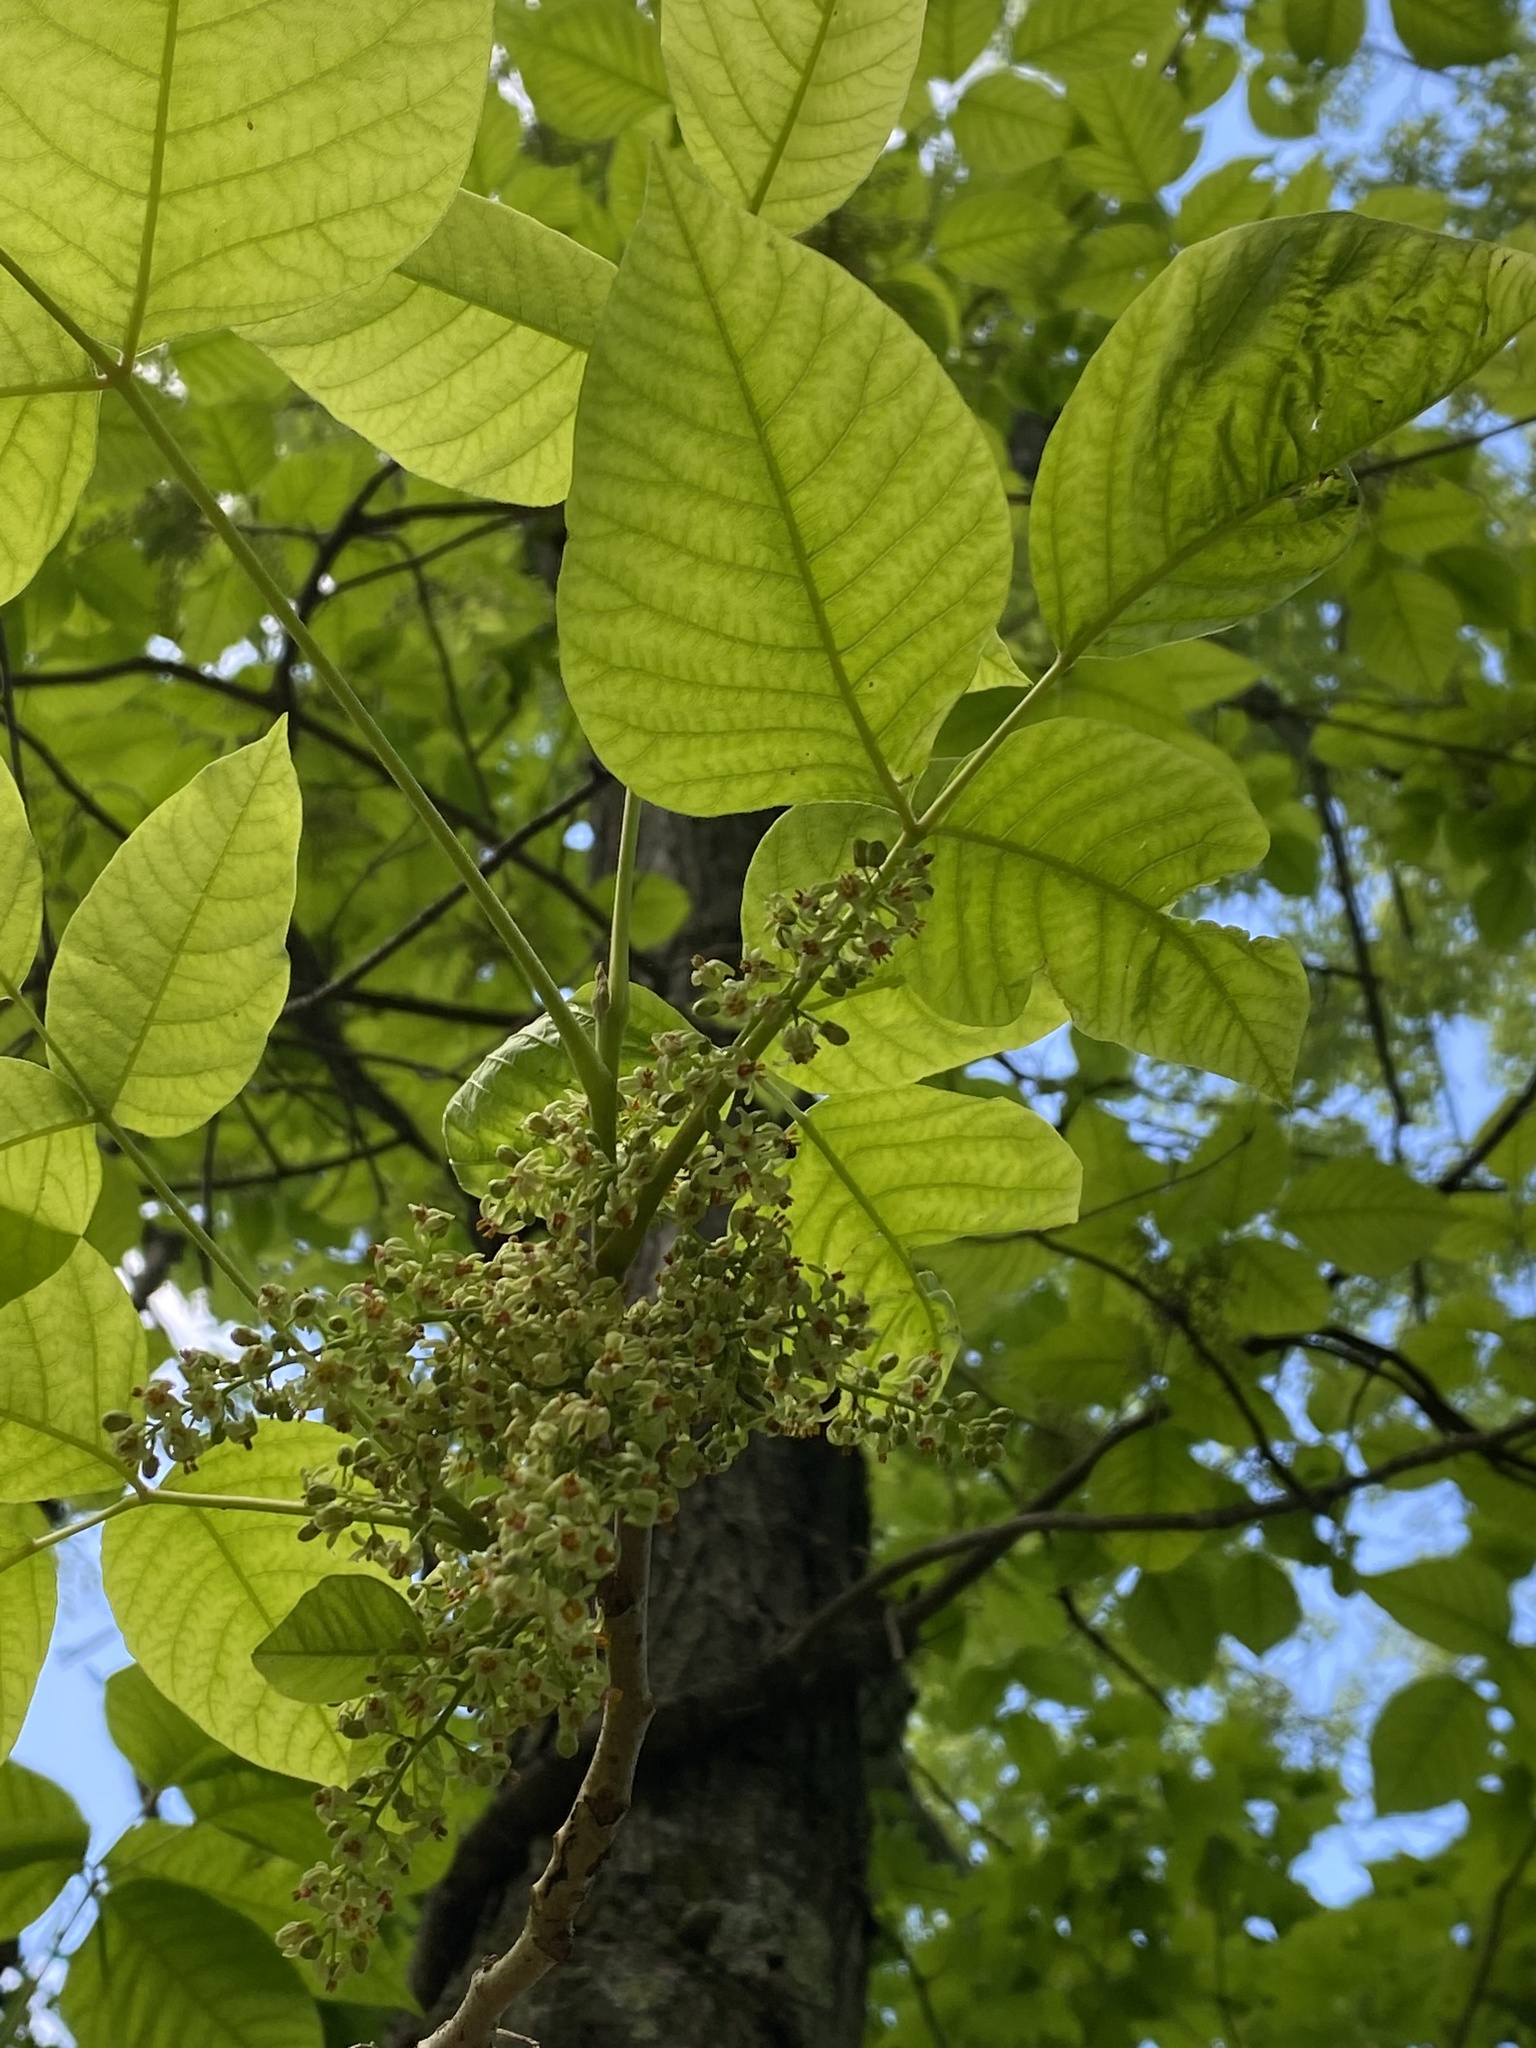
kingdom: Plantae
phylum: Tracheophyta
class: Magnoliopsida
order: Sapindales
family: Anacardiaceae
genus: Toxicodendron
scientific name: Toxicodendron radicans
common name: Poison ivy
